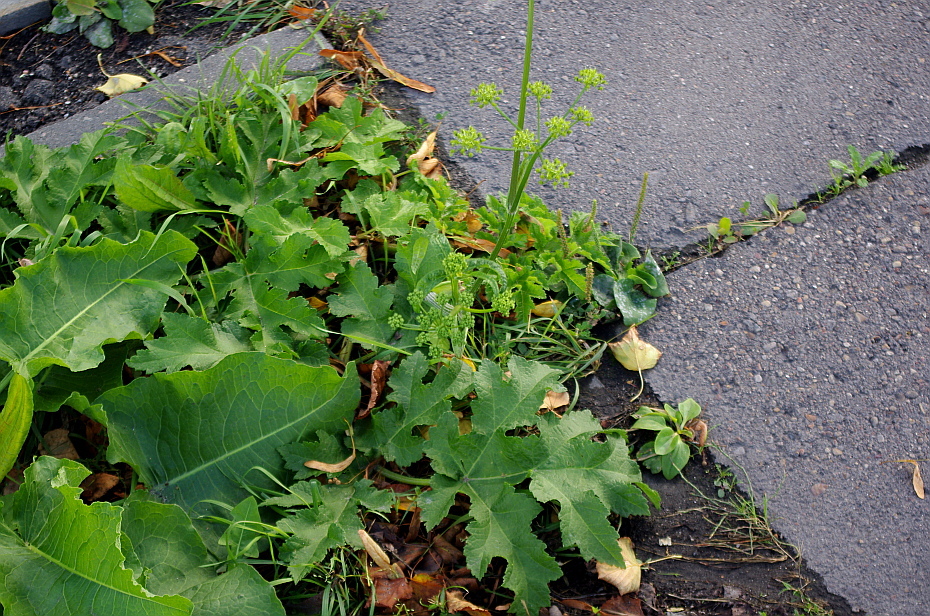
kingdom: Plantae
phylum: Tracheophyta
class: Magnoliopsida
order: Apiales
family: Apiaceae
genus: Heracleum
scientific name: Heracleum sphondylium
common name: Hogweed
